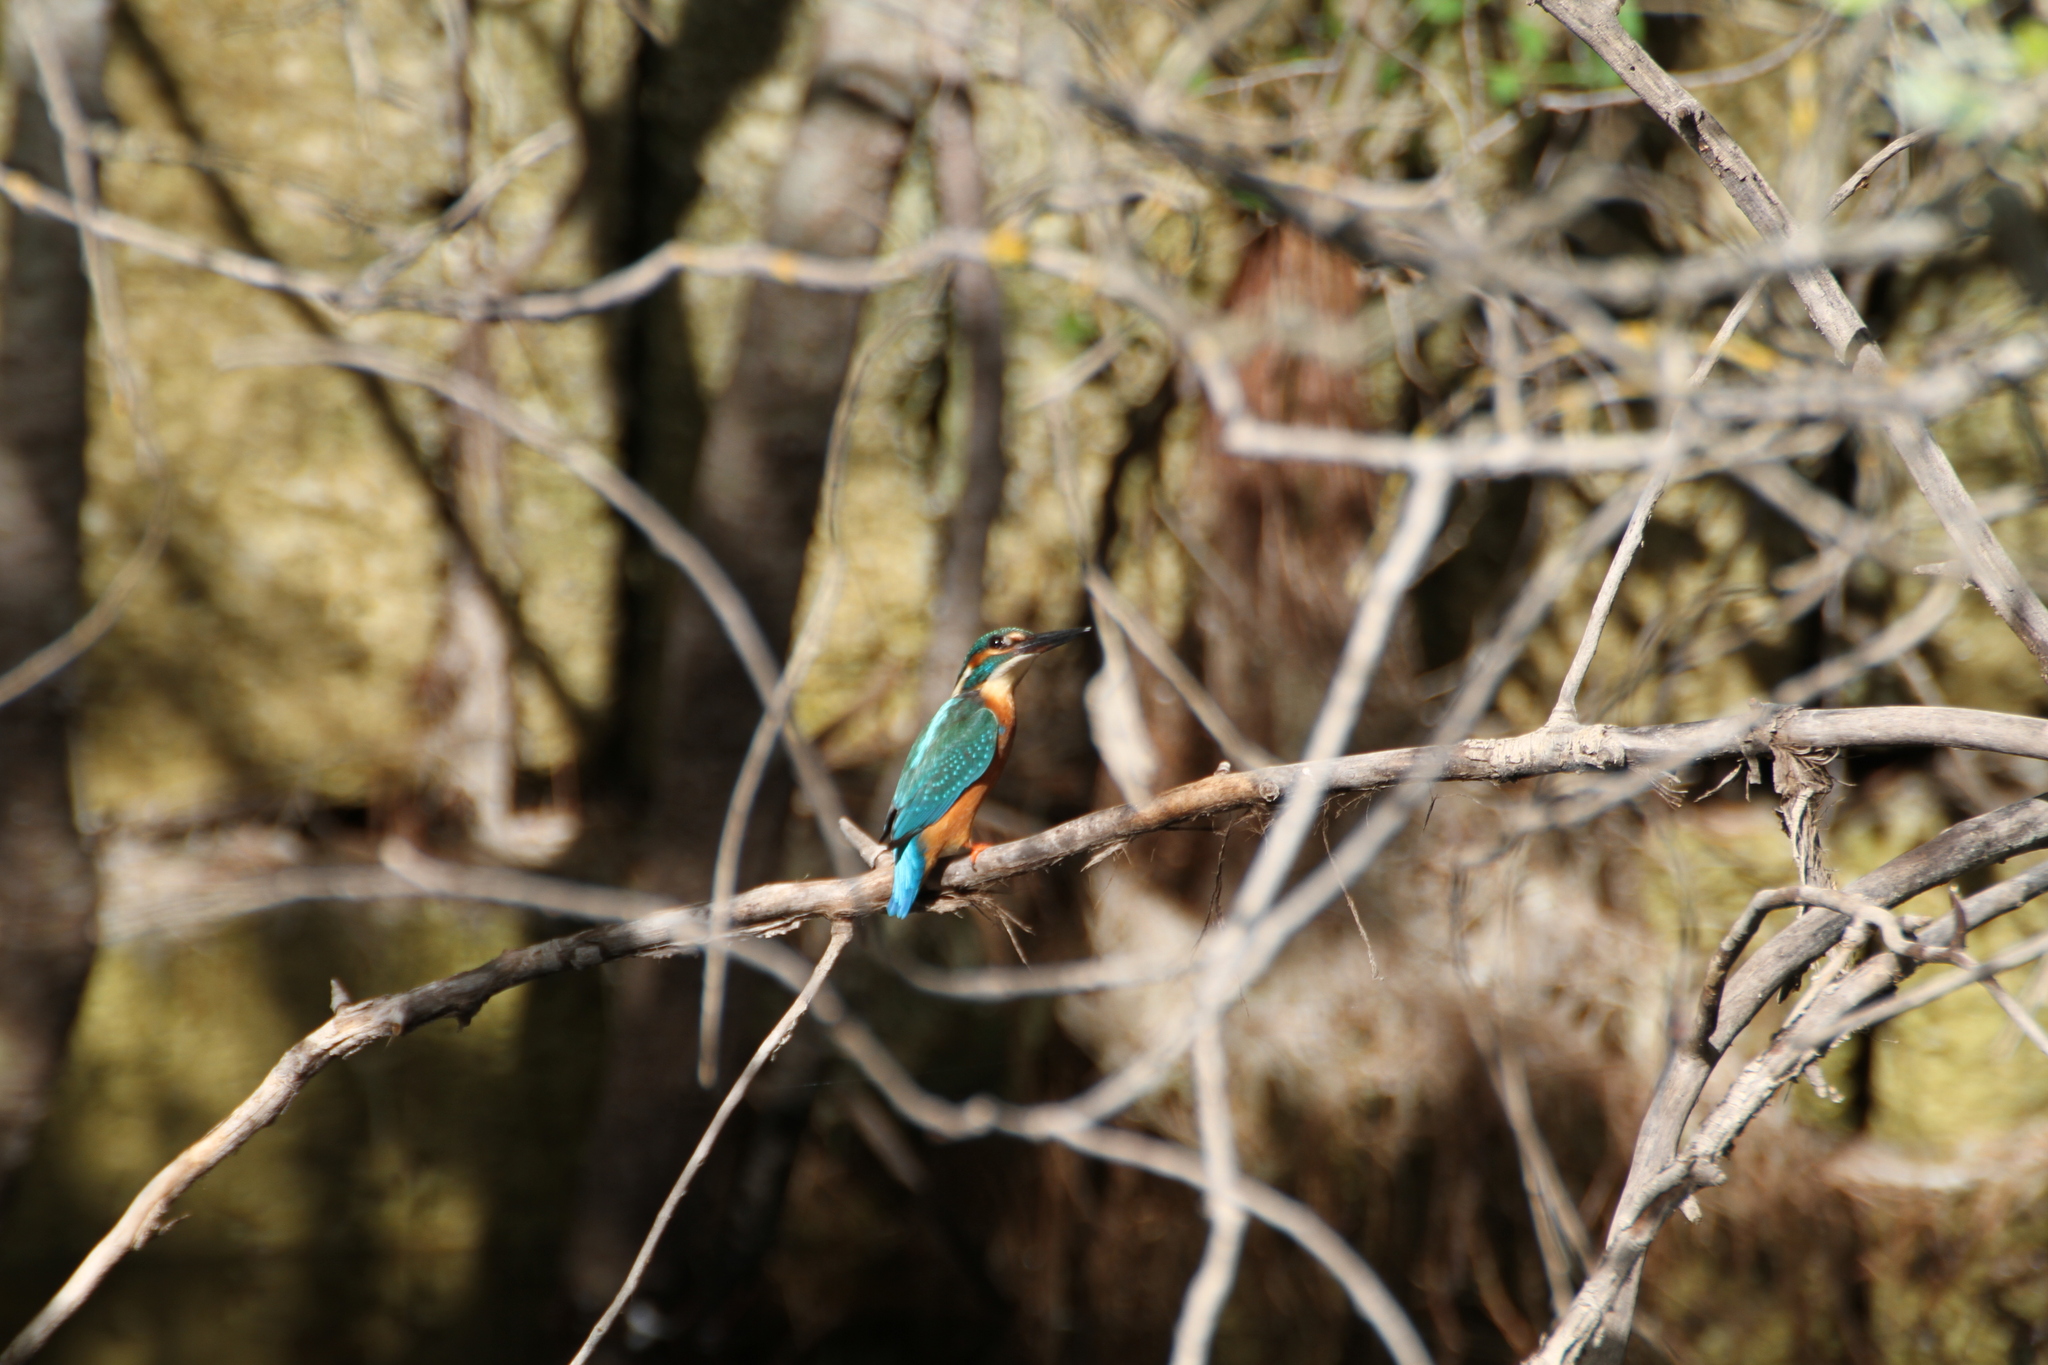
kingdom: Animalia
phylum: Chordata
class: Aves
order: Coraciiformes
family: Alcedinidae
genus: Alcedo
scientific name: Alcedo atthis
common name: Common kingfisher
